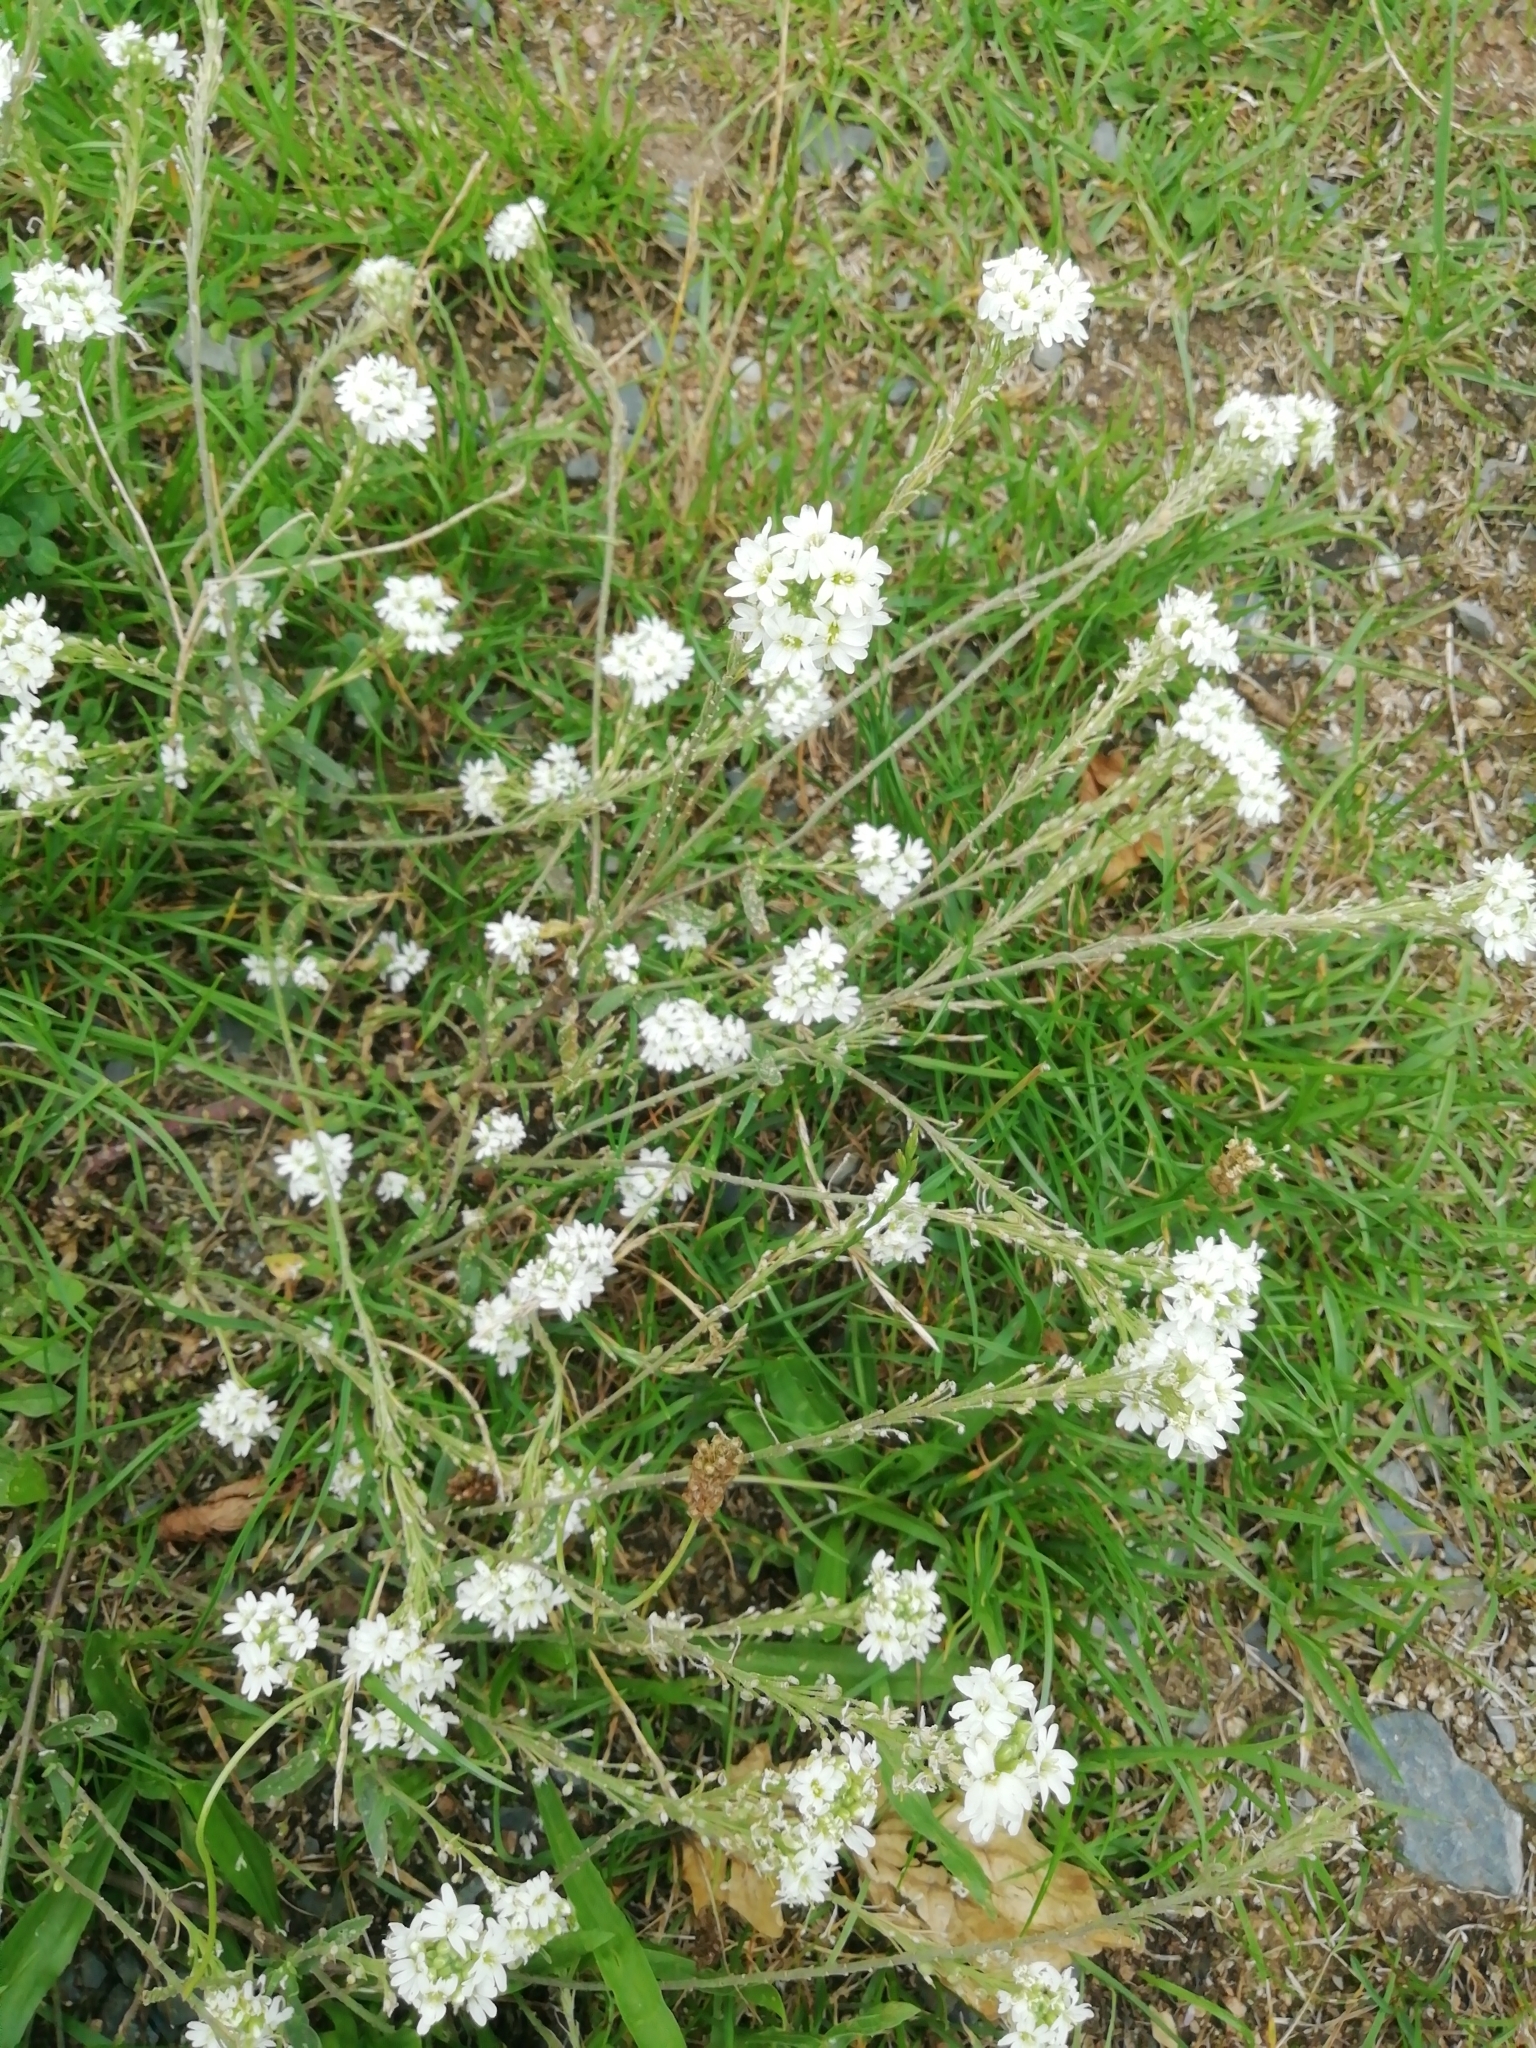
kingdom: Plantae
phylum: Tracheophyta
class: Magnoliopsida
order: Brassicales
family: Brassicaceae
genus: Berteroa
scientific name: Berteroa incana
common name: Hoary alison
